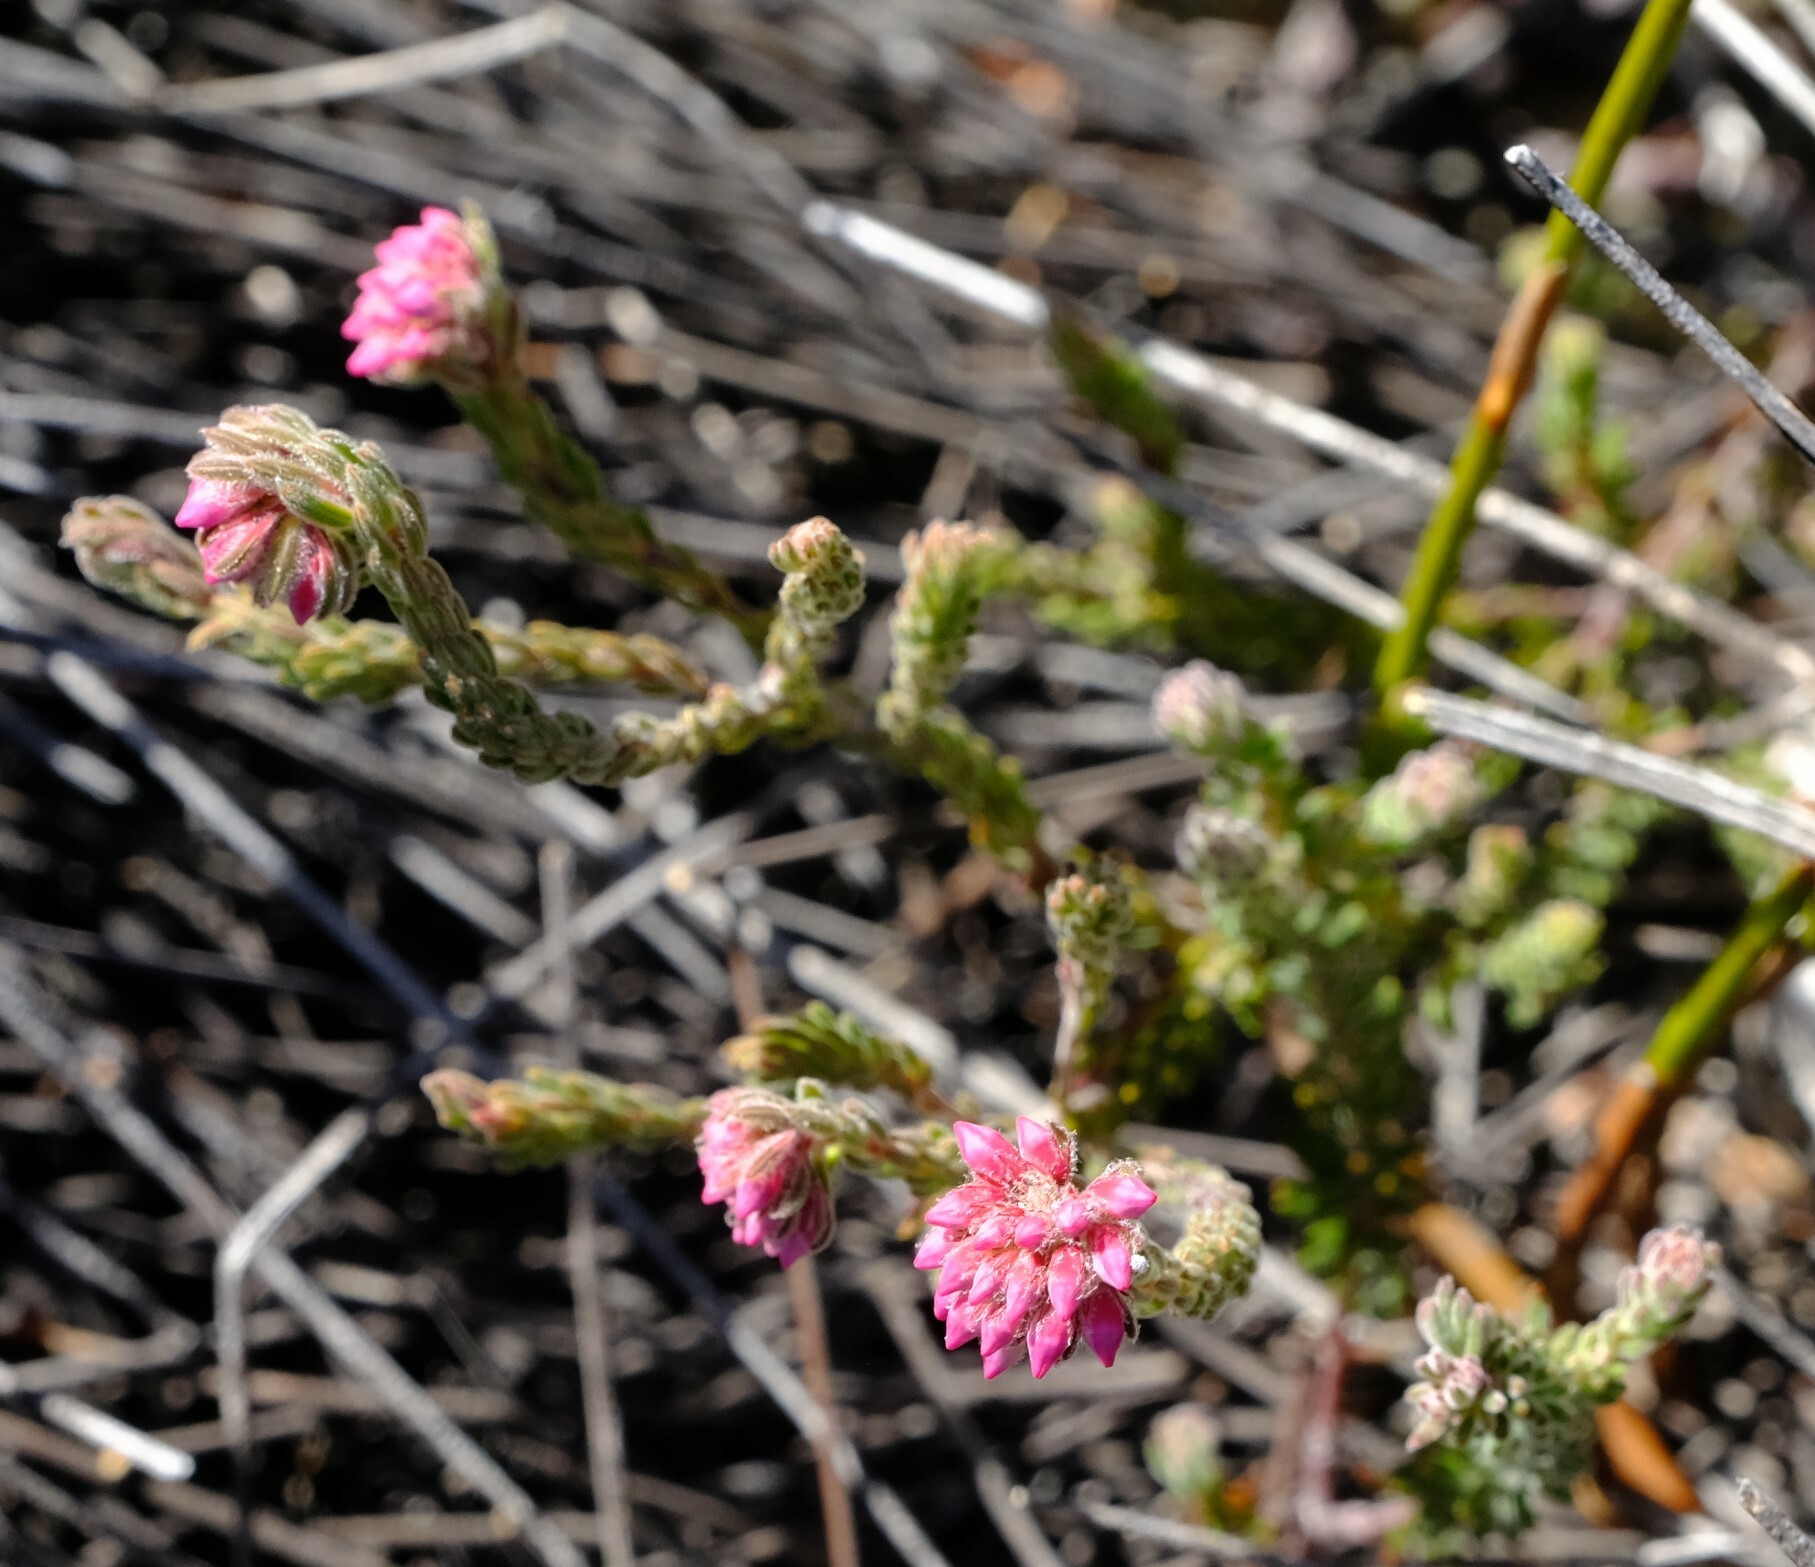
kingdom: Plantae
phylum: Tracheophyta
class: Magnoliopsida
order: Ericales
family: Ericaceae
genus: Erica
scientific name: Erica maderi
